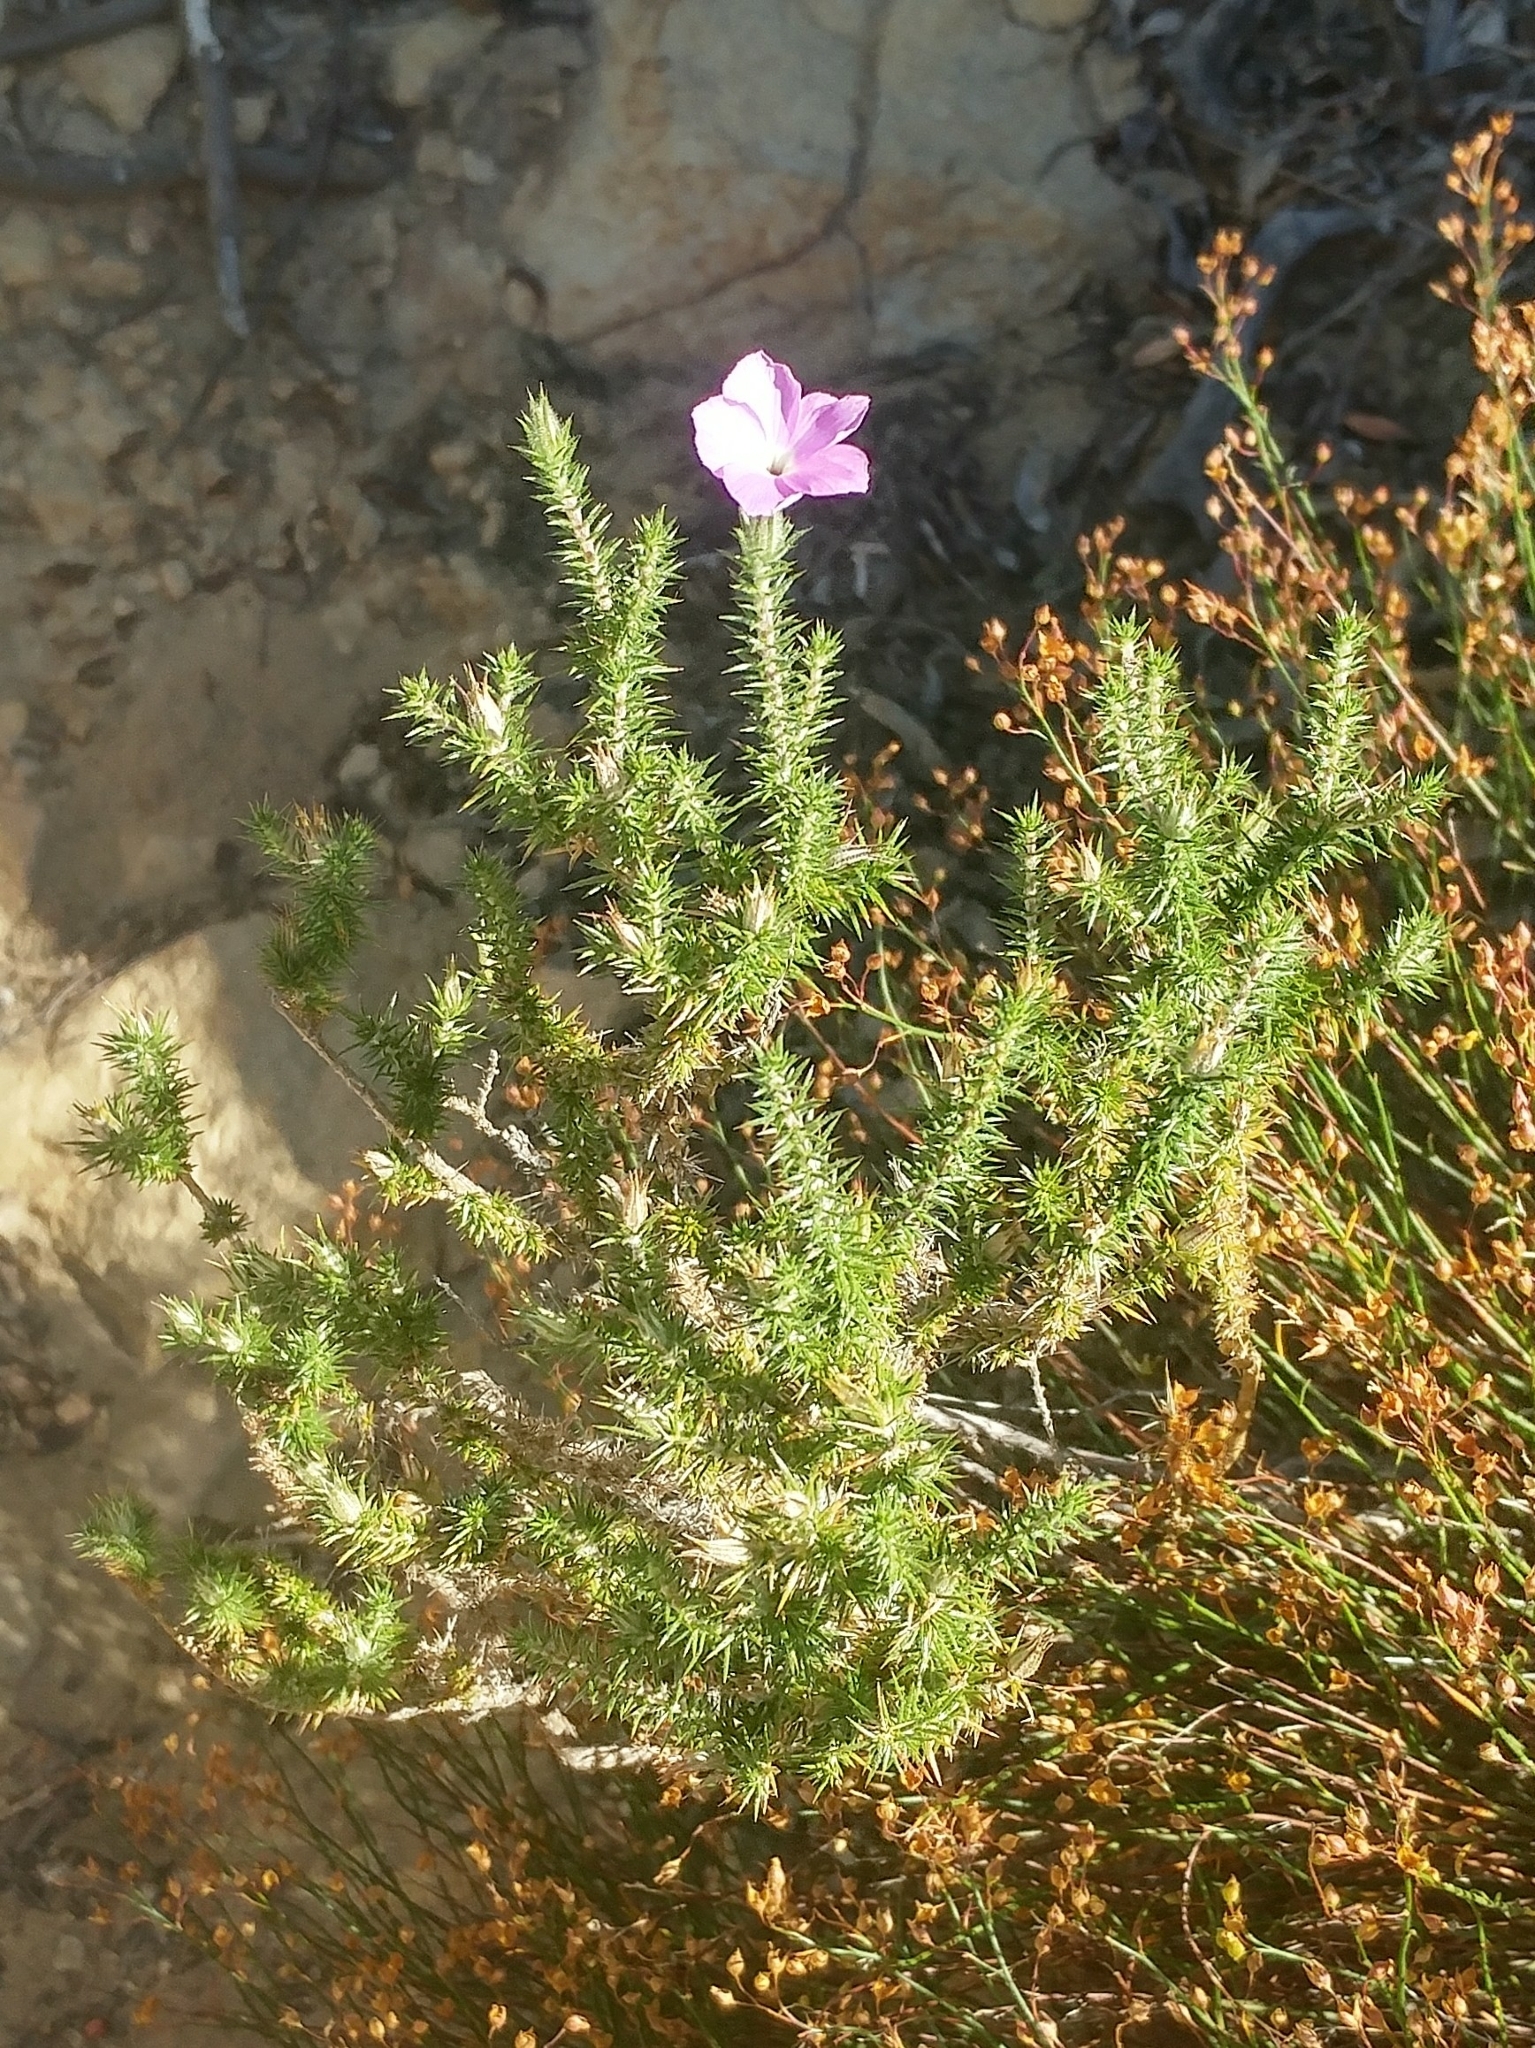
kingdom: Plantae
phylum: Tracheophyta
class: Magnoliopsida
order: Ericales
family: Polemoniaceae
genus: Linanthus
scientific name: Linanthus californicus
